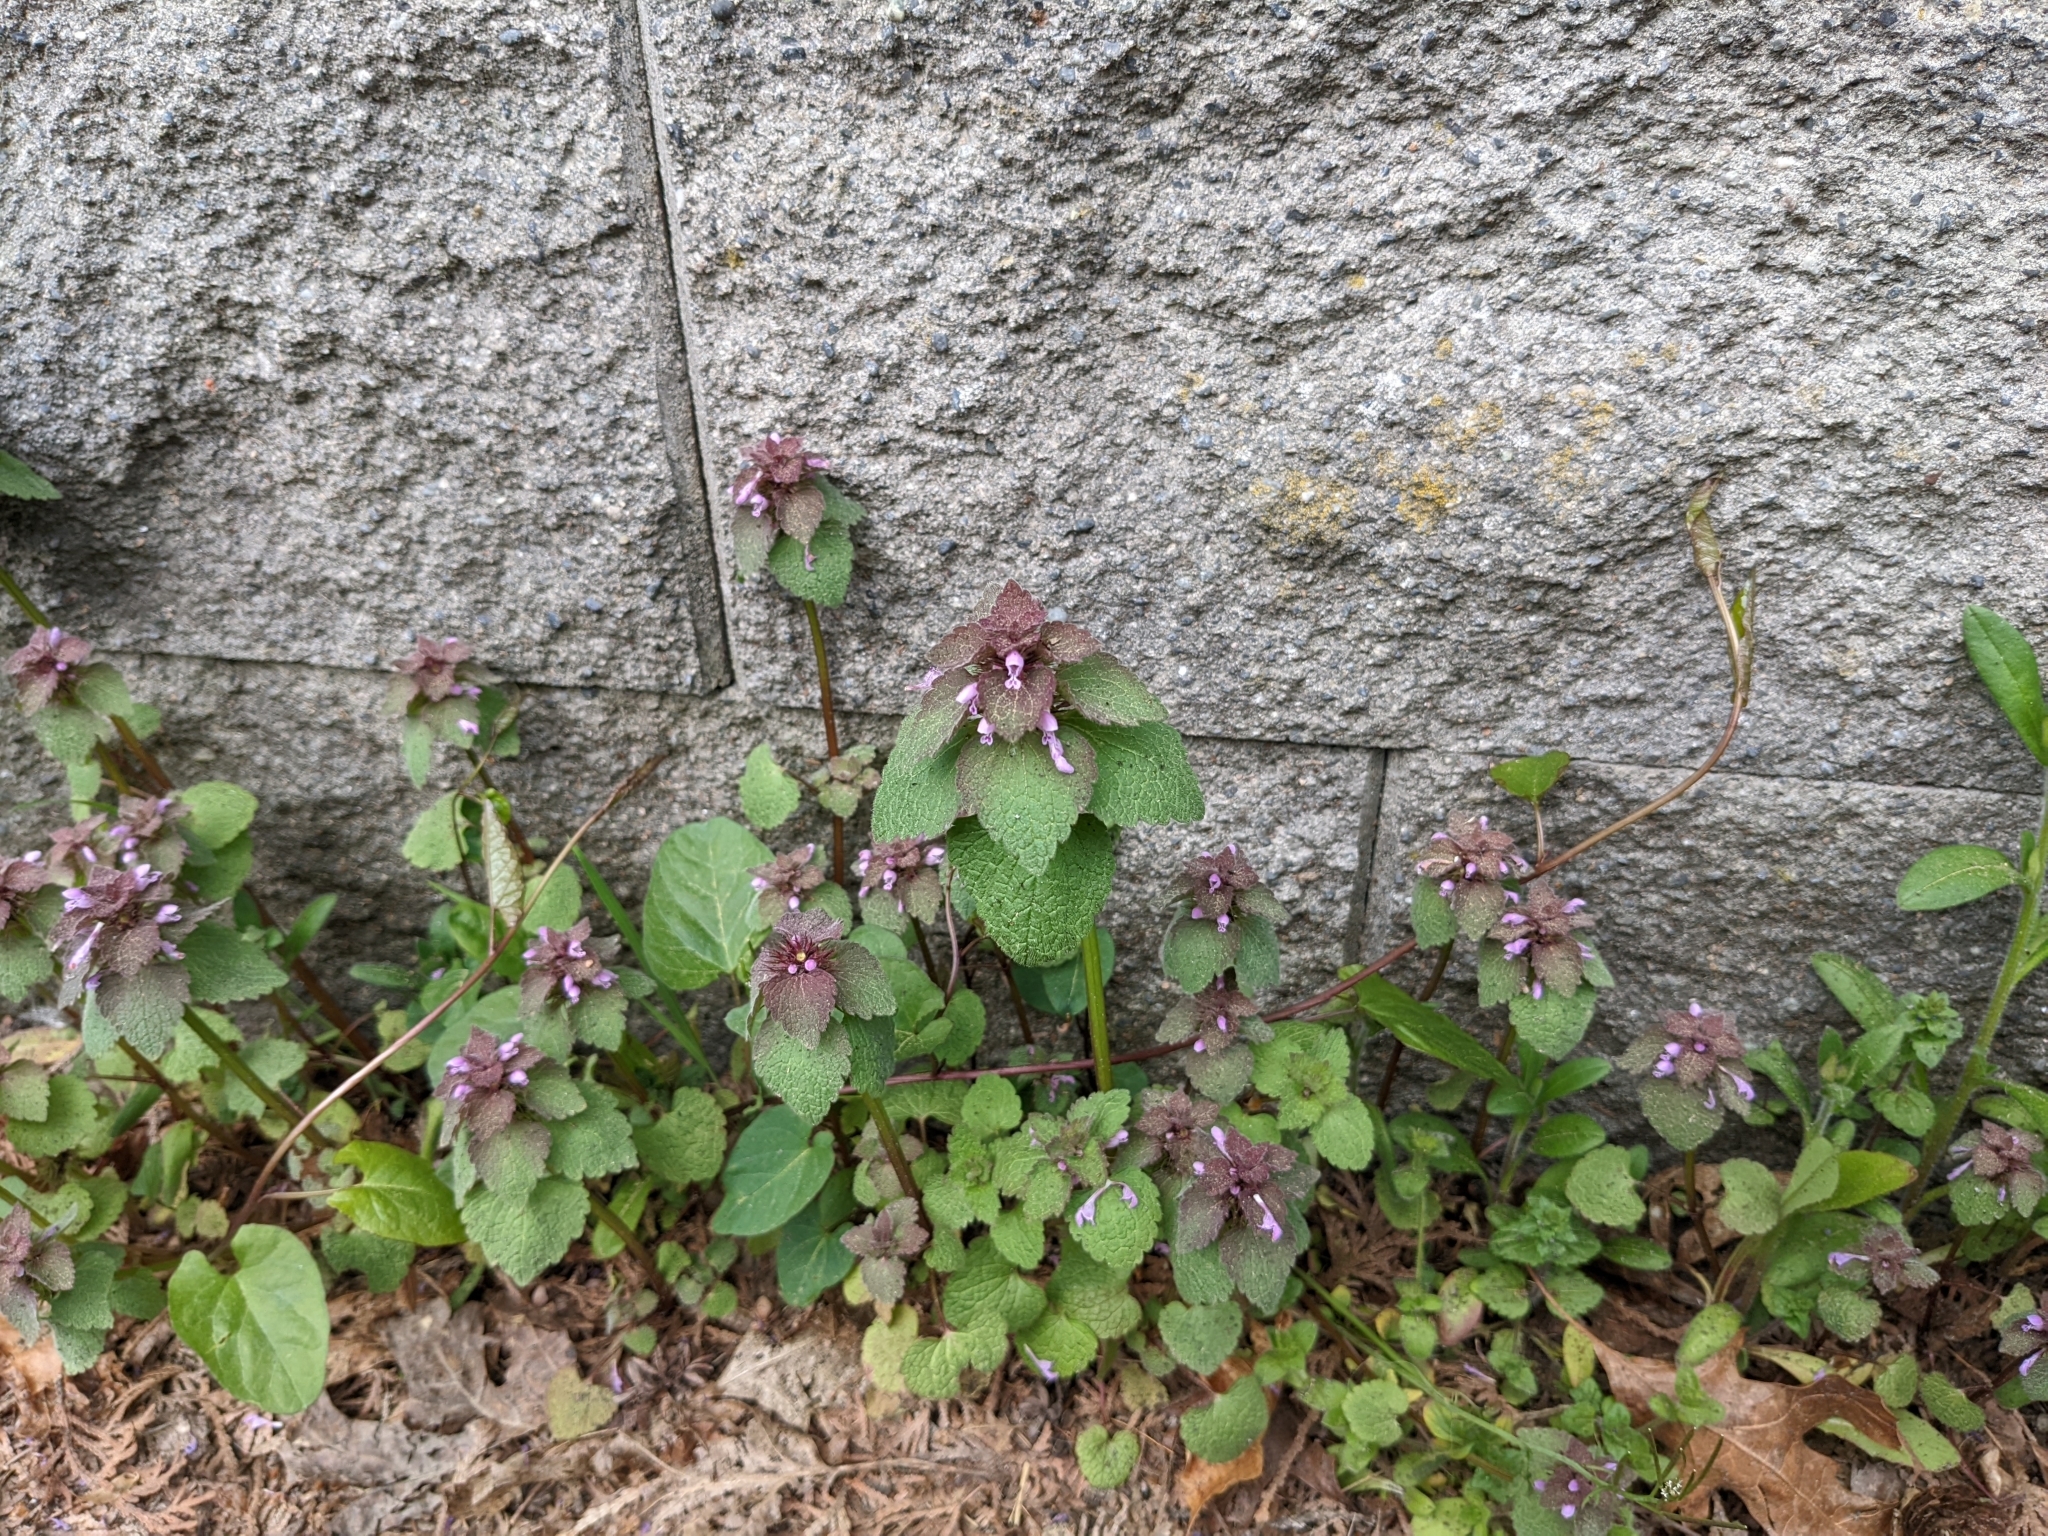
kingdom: Plantae
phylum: Tracheophyta
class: Magnoliopsida
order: Lamiales
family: Lamiaceae
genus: Lamium
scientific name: Lamium purpureum
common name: Red dead-nettle
